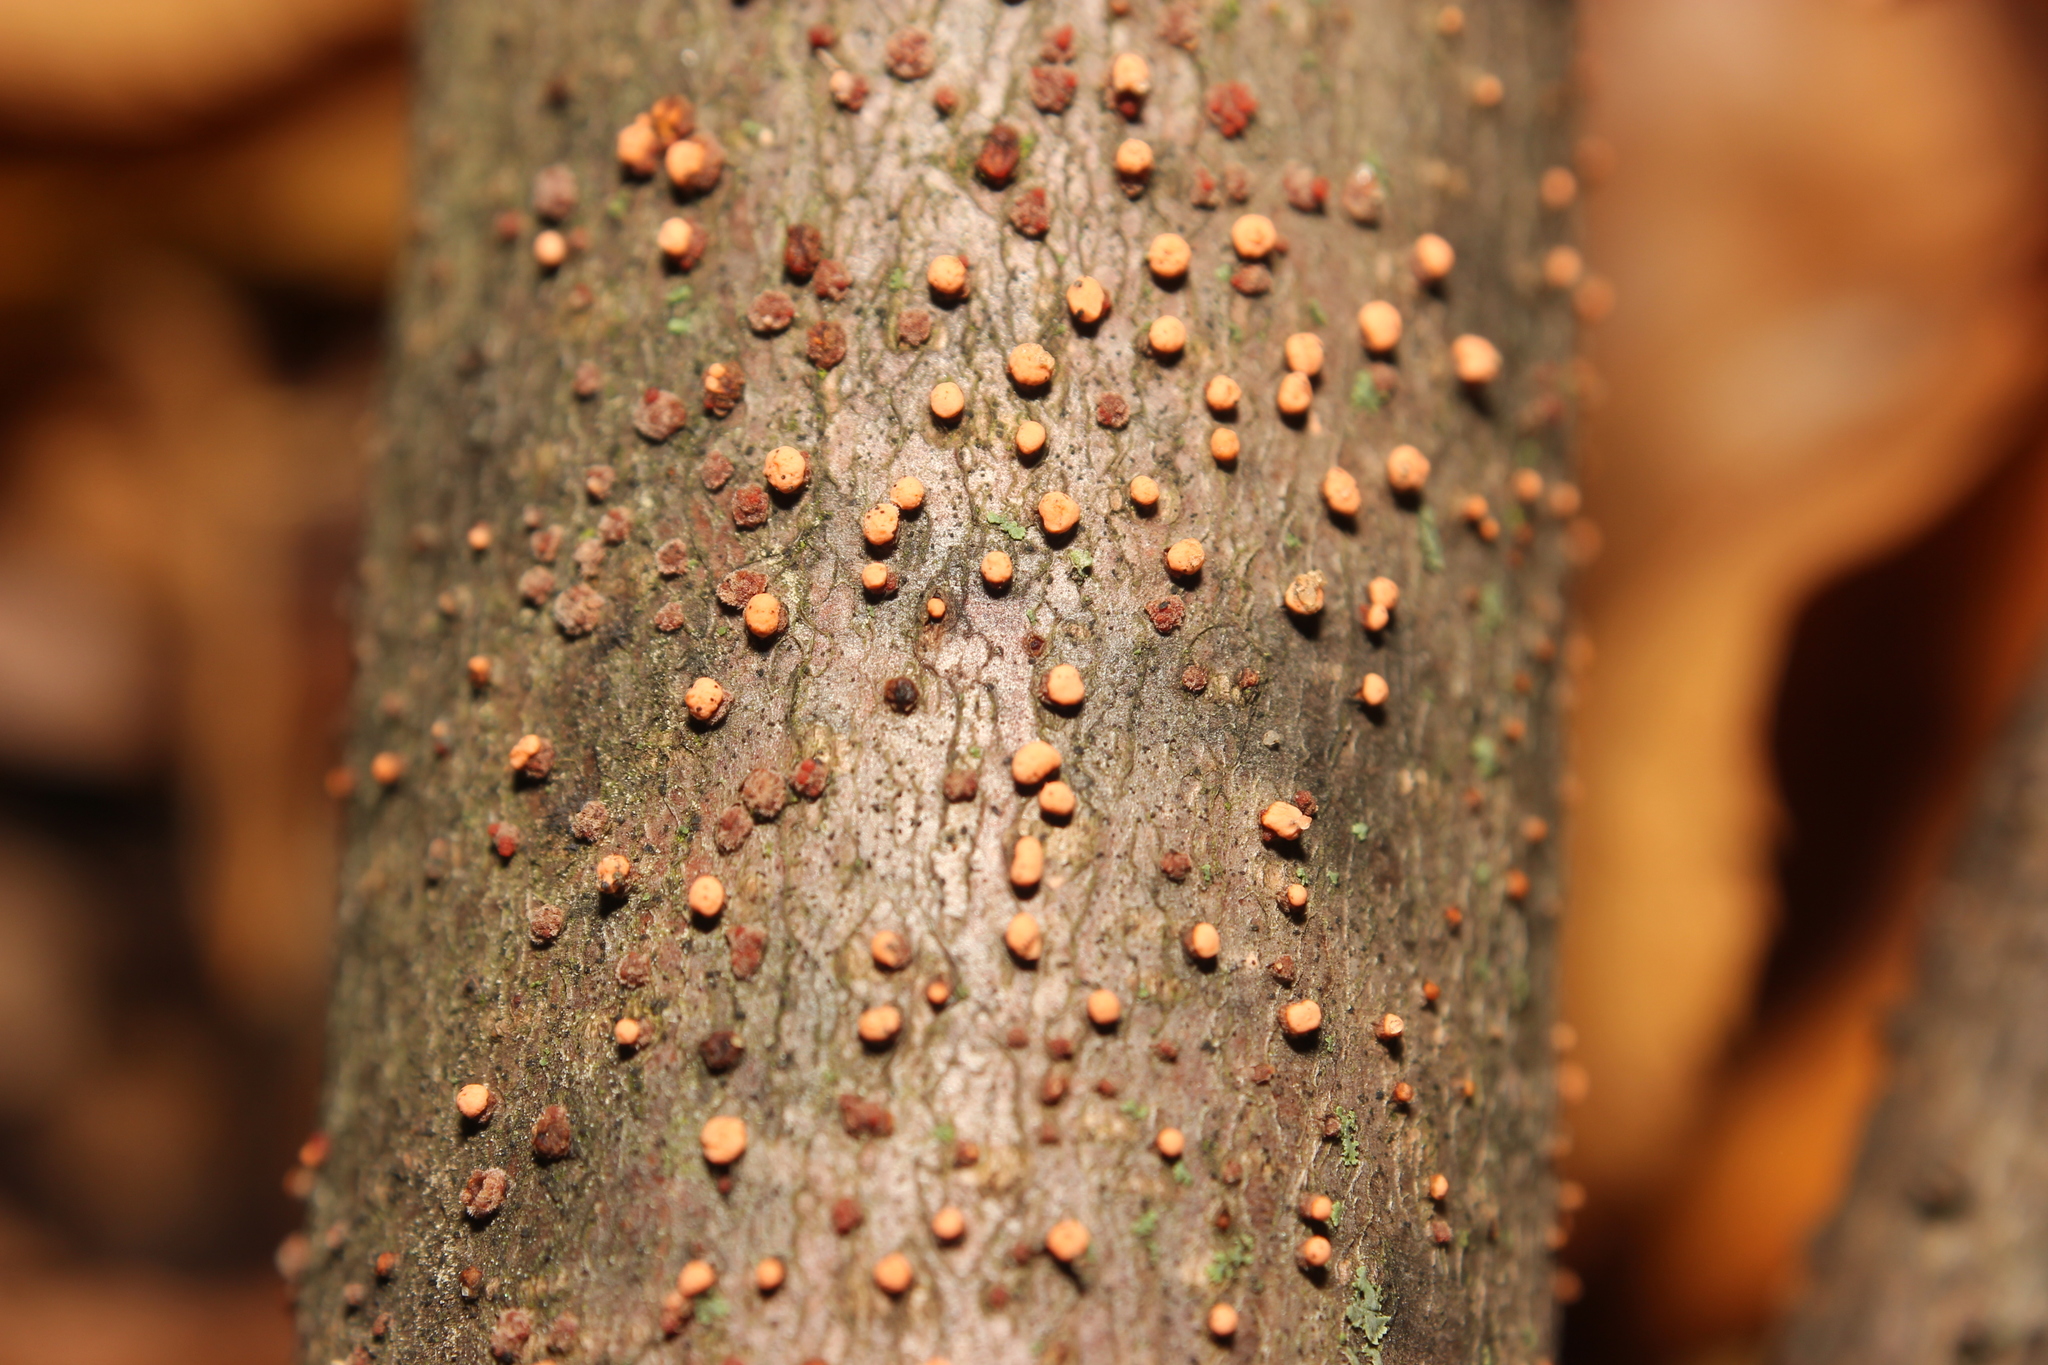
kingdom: Fungi
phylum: Ascomycota
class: Sordariomycetes
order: Hypocreales
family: Nectriaceae
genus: Nectria
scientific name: Nectria cinnabarina
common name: Coral spot
